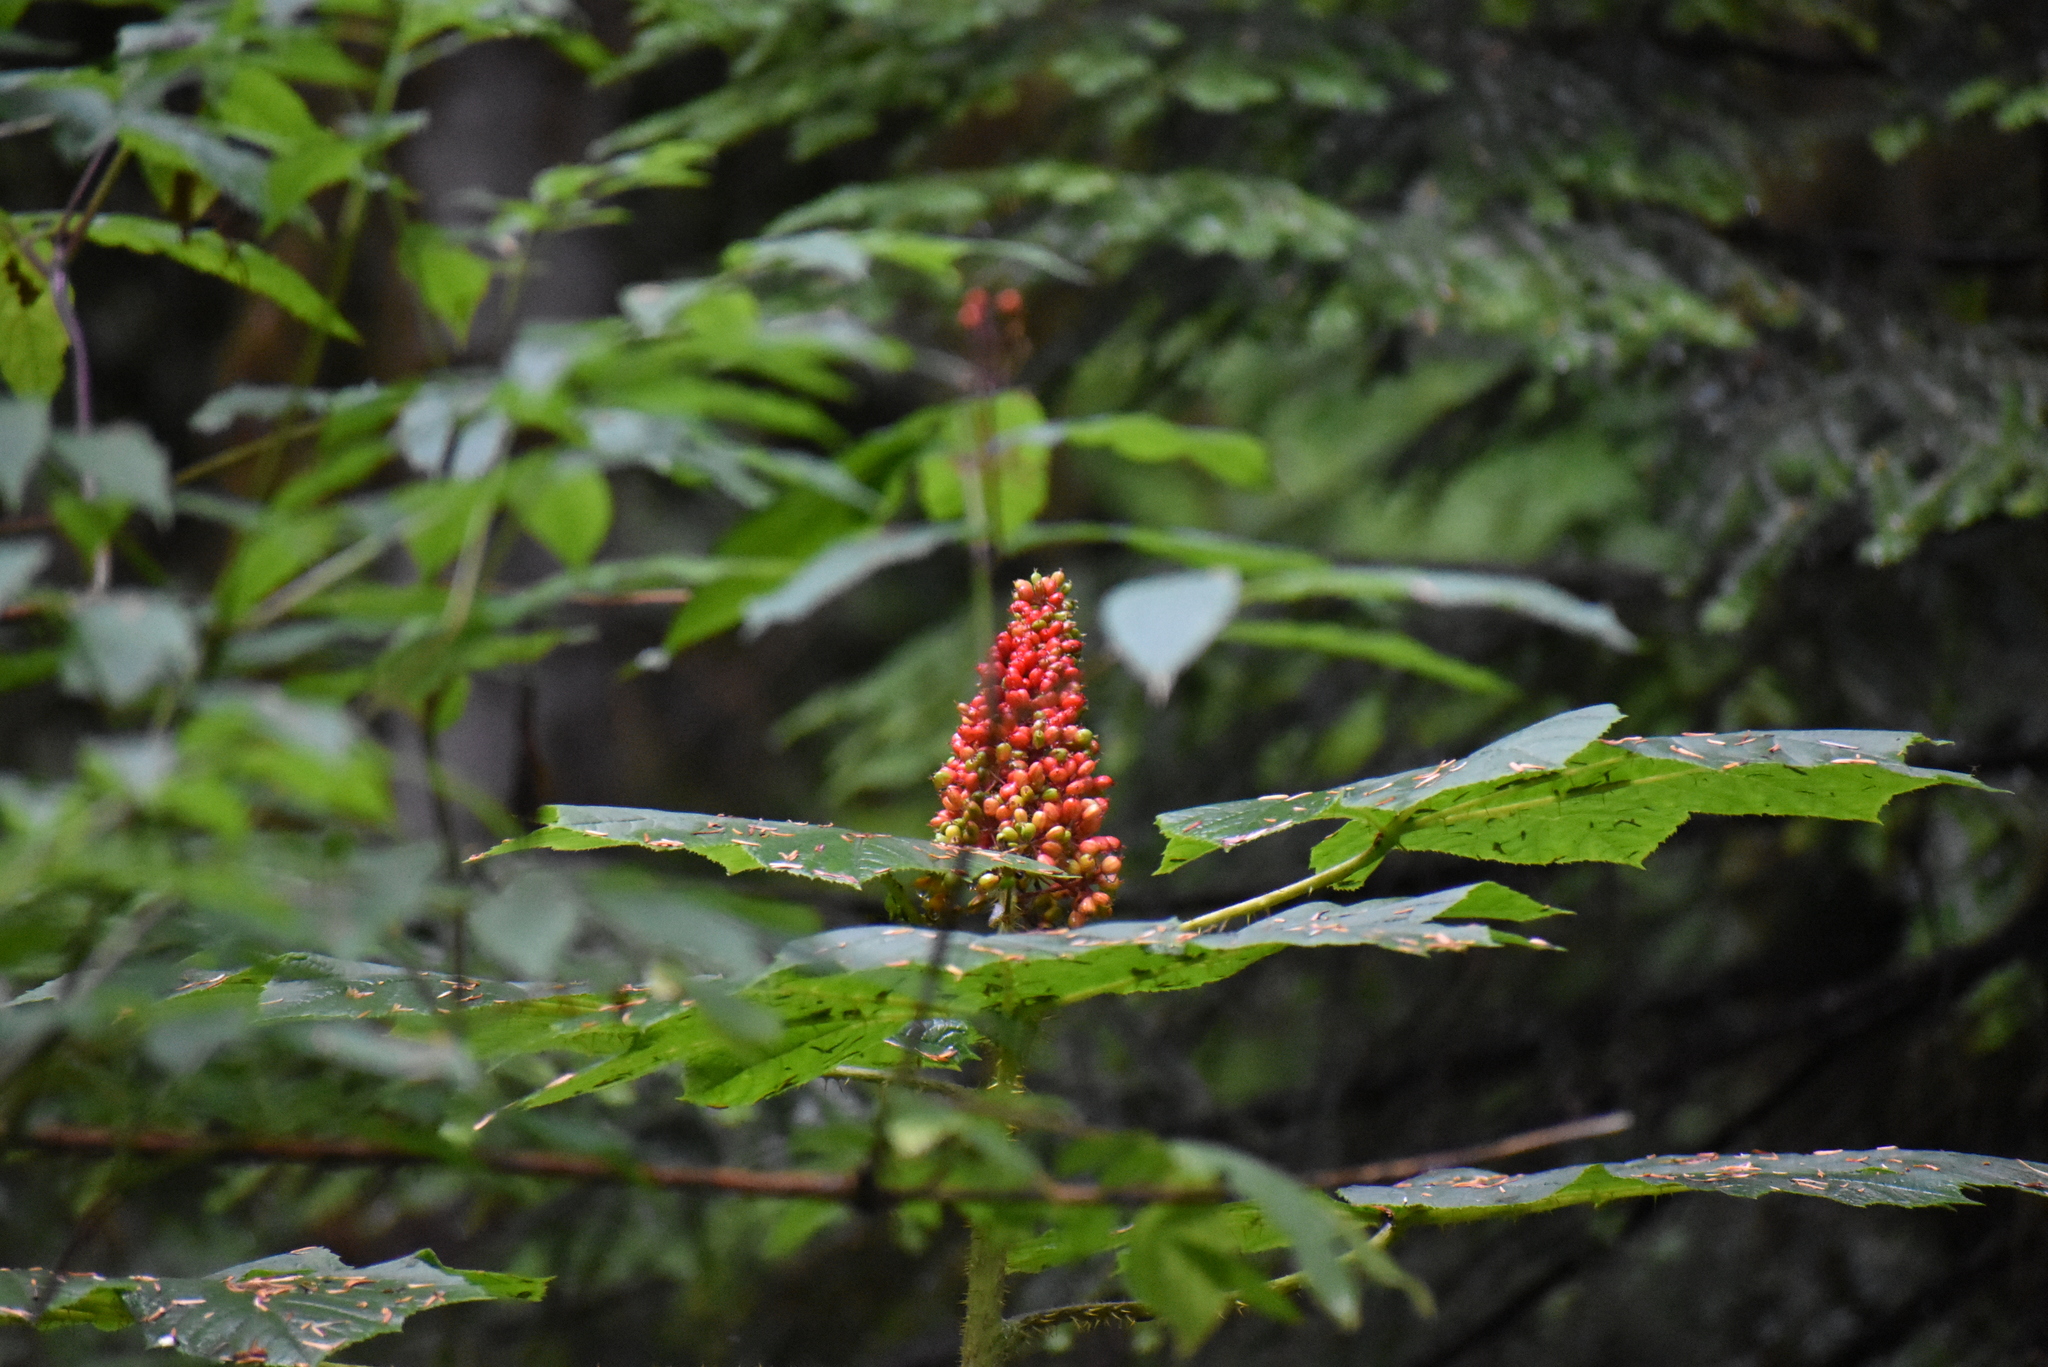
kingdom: Plantae
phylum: Tracheophyta
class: Magnoliopsida
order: Apiales
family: Araliaceae
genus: Oplopanax
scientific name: Oplopanax horridus
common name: Devil's walking-stick
